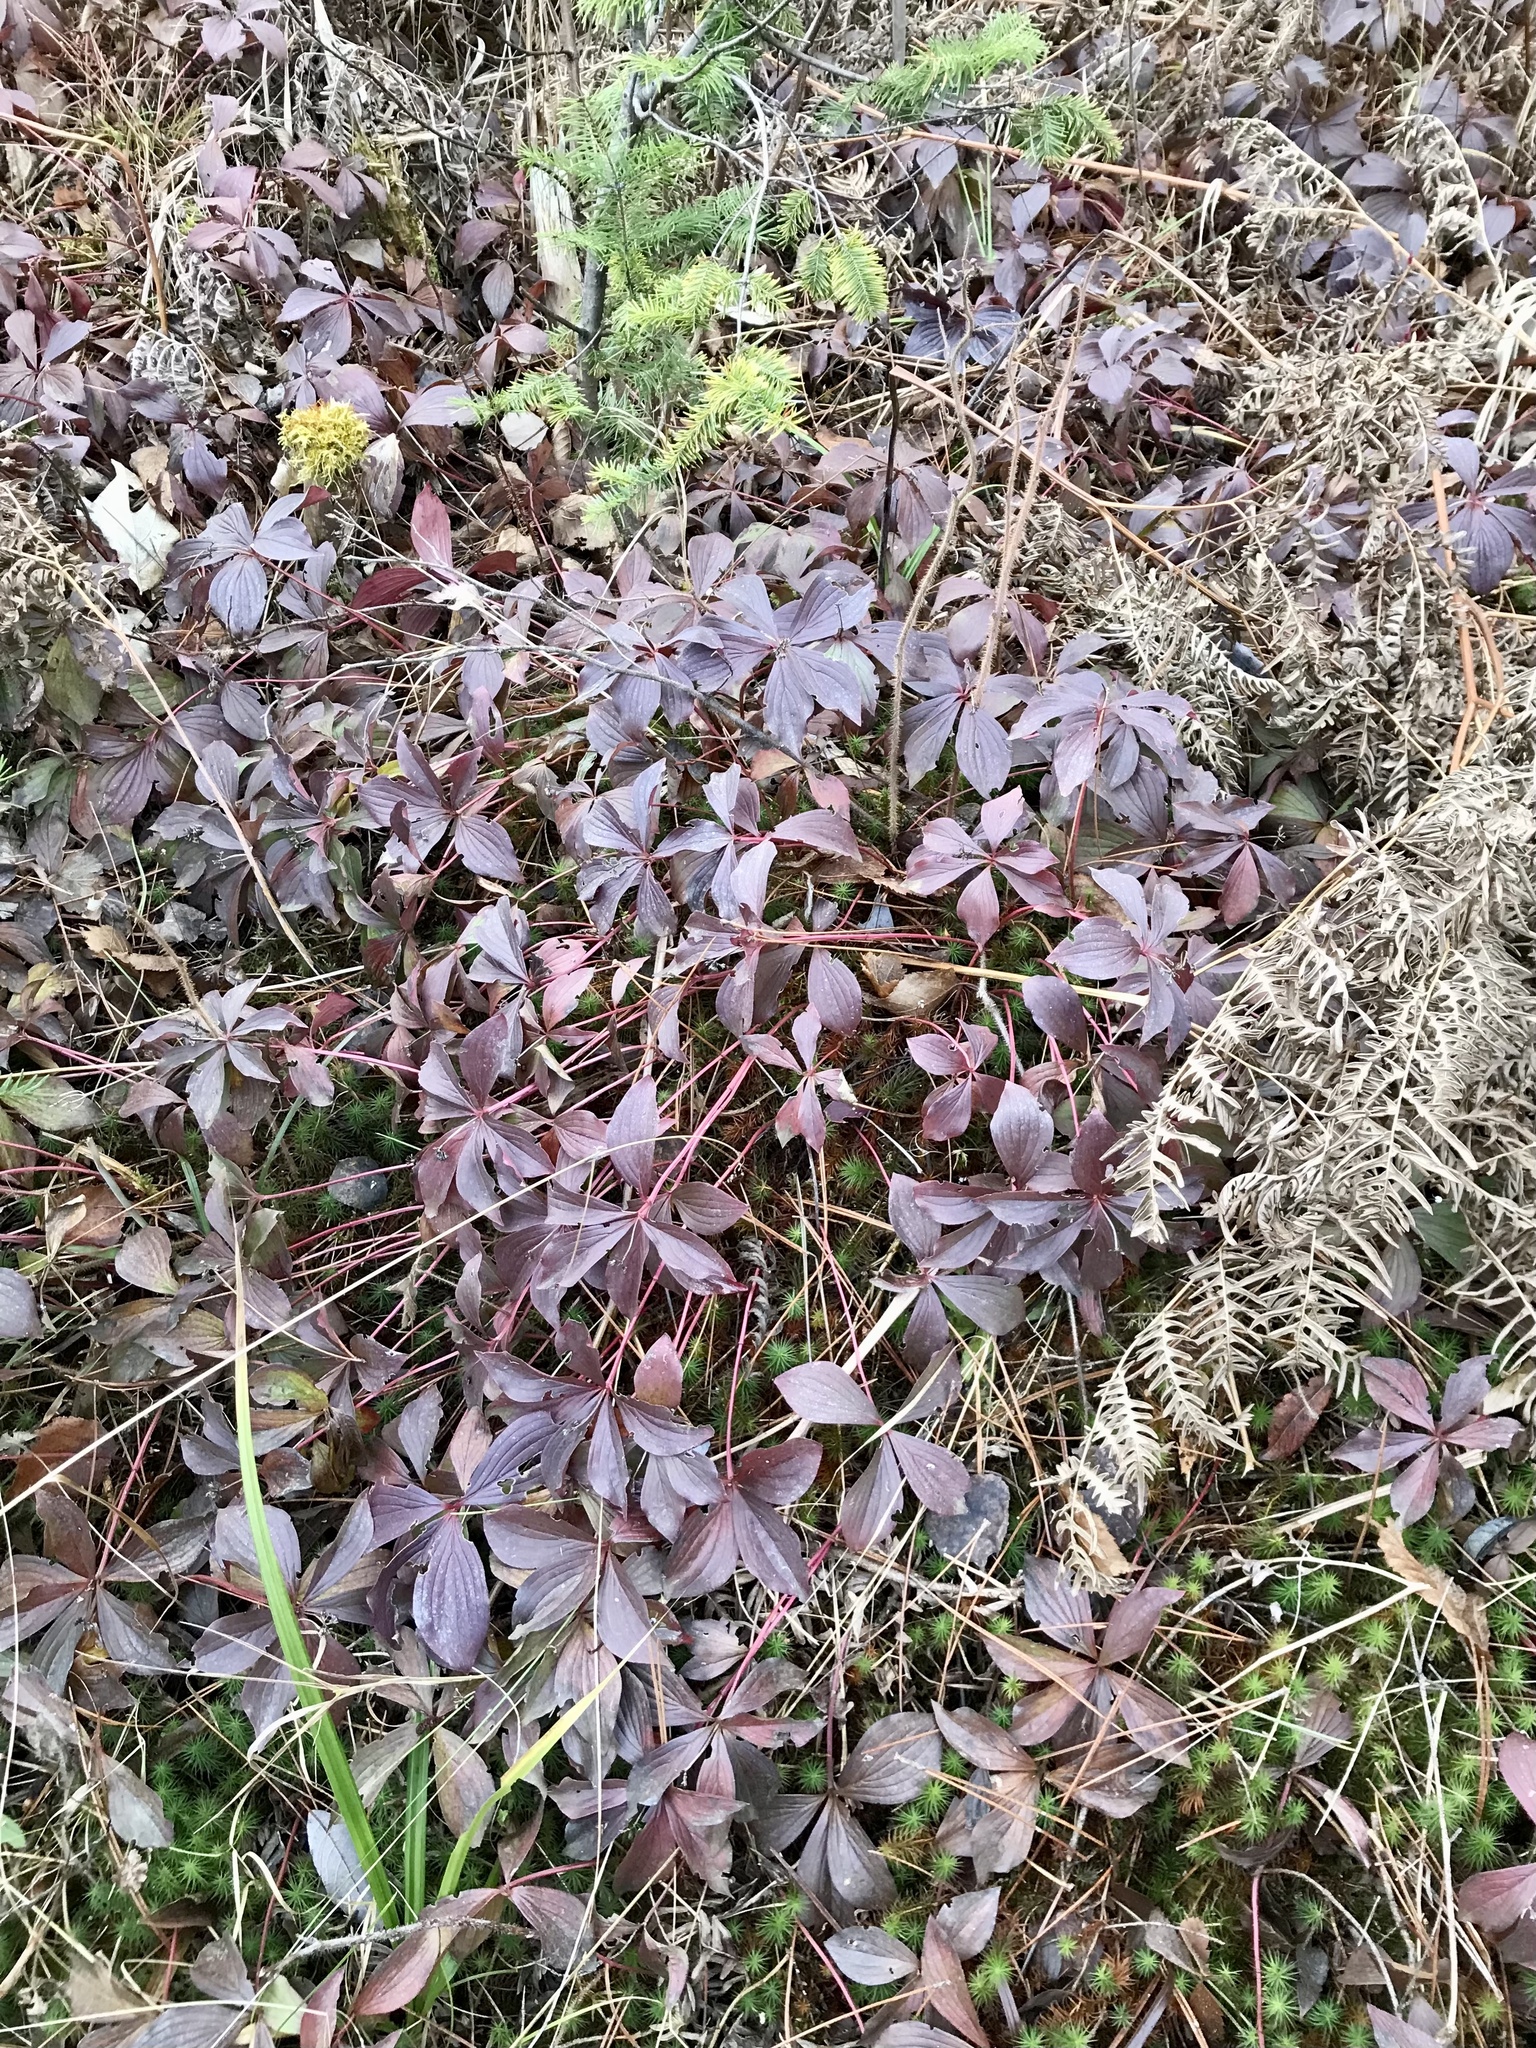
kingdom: Plantae
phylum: Tracheophyta
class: Magnoliopsida
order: Cornales
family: Cornaceae
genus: Cornus
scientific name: Cornus canadensis
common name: Creeping dogwood
